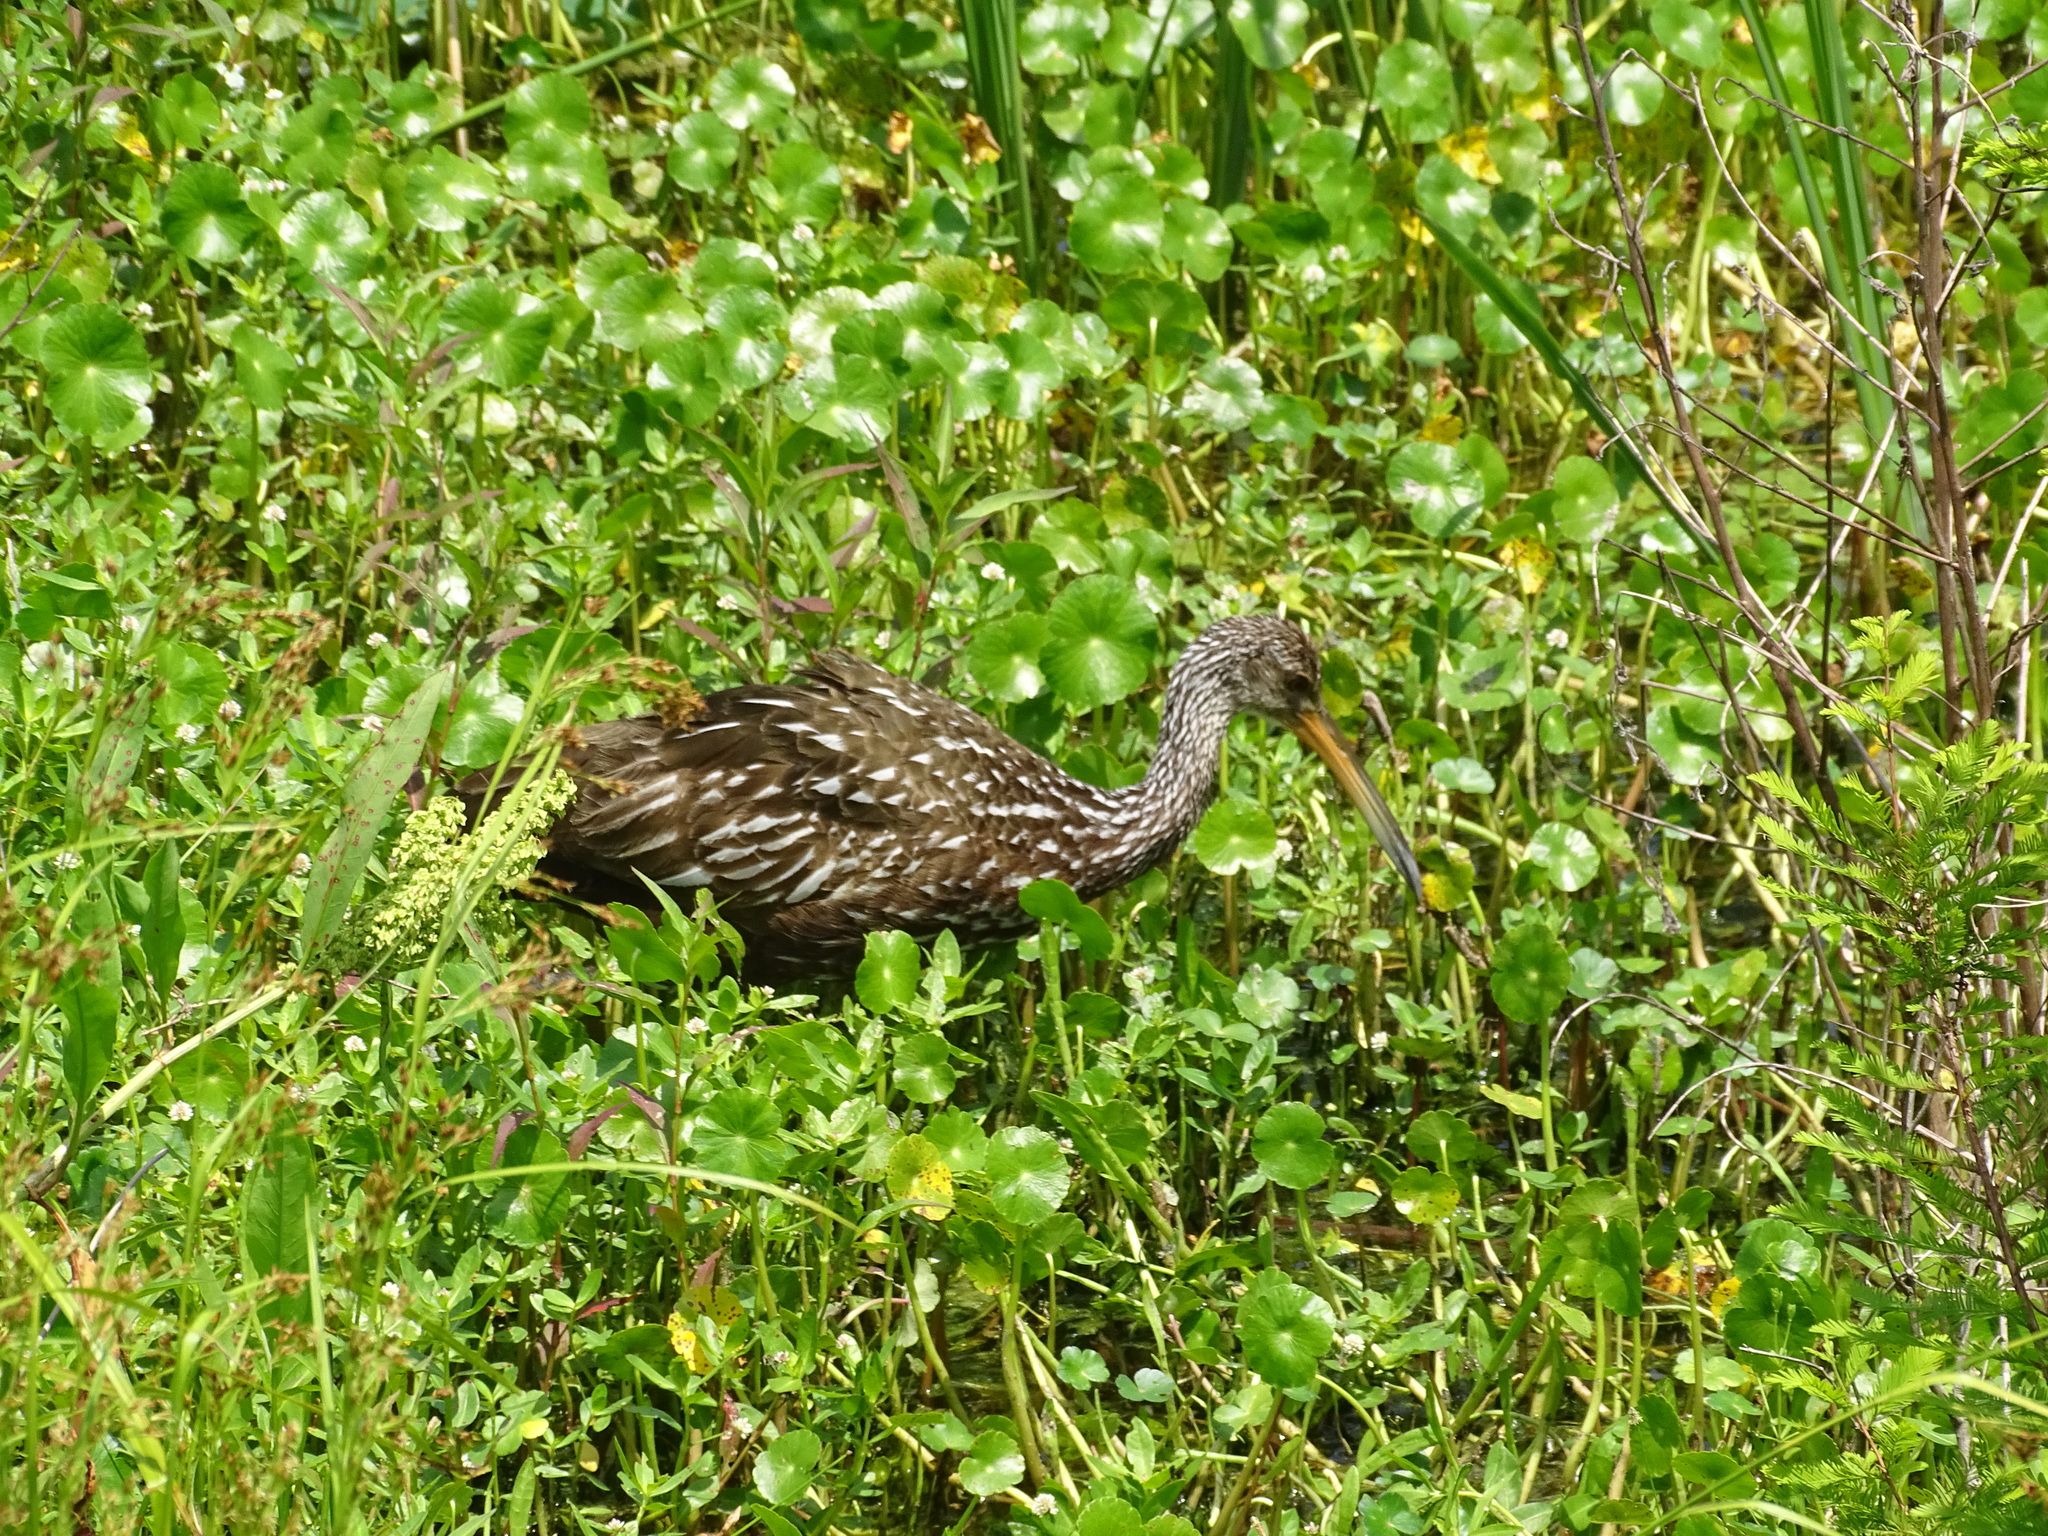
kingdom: Animalia
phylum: Chordata
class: Aves
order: Gruiformes
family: Aramidae
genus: Aramus
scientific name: Aramus guarauna
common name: Limpkin
